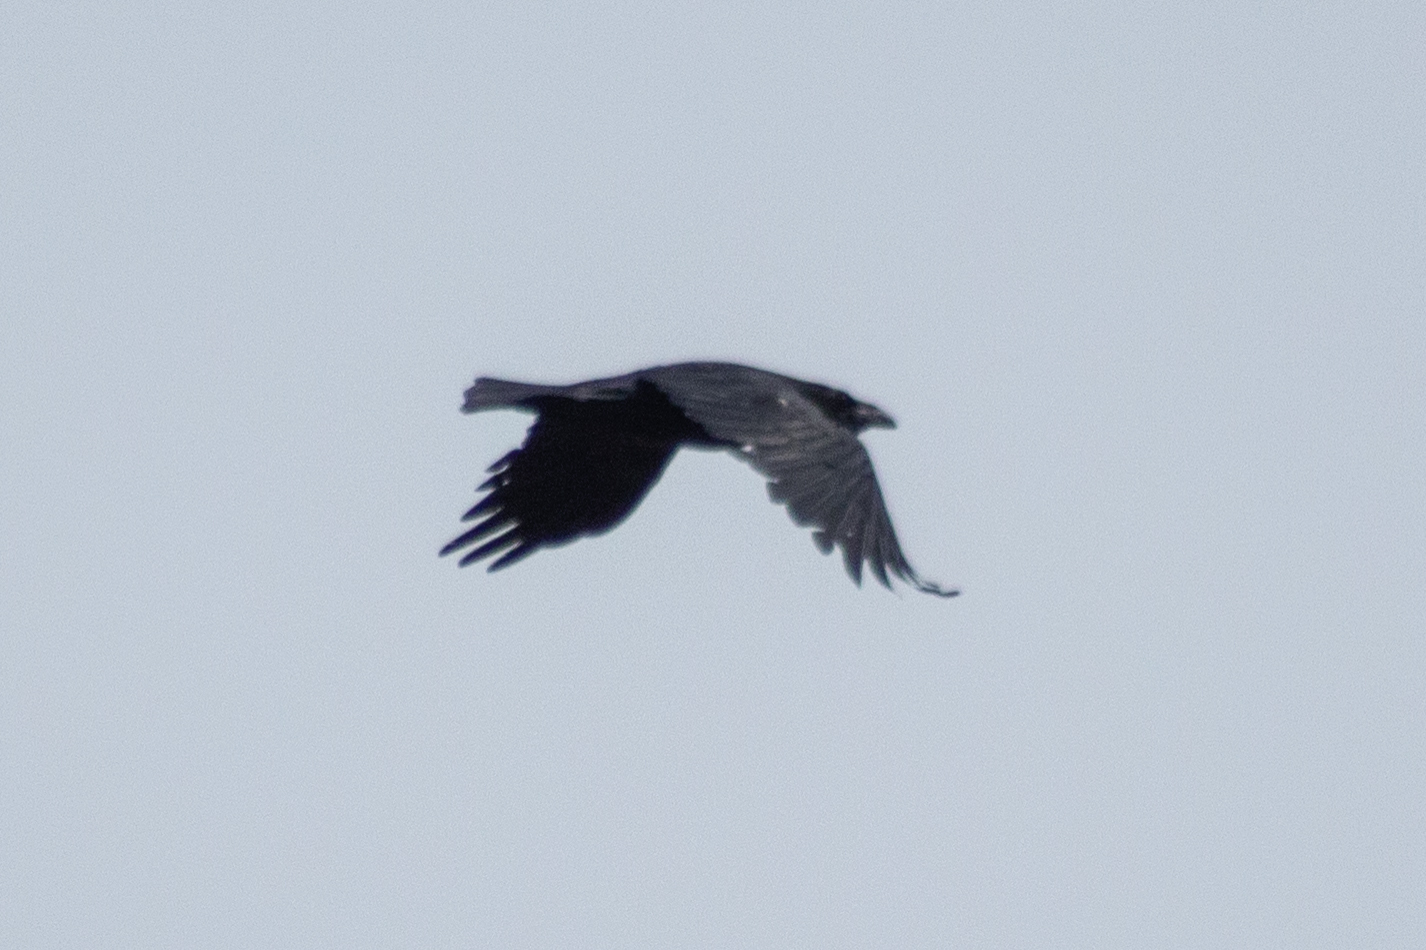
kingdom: Animalia
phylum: Chordata
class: Aves
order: Passeriformes
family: Corvidae
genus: Corvus
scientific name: Corvus corax
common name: Common raven
